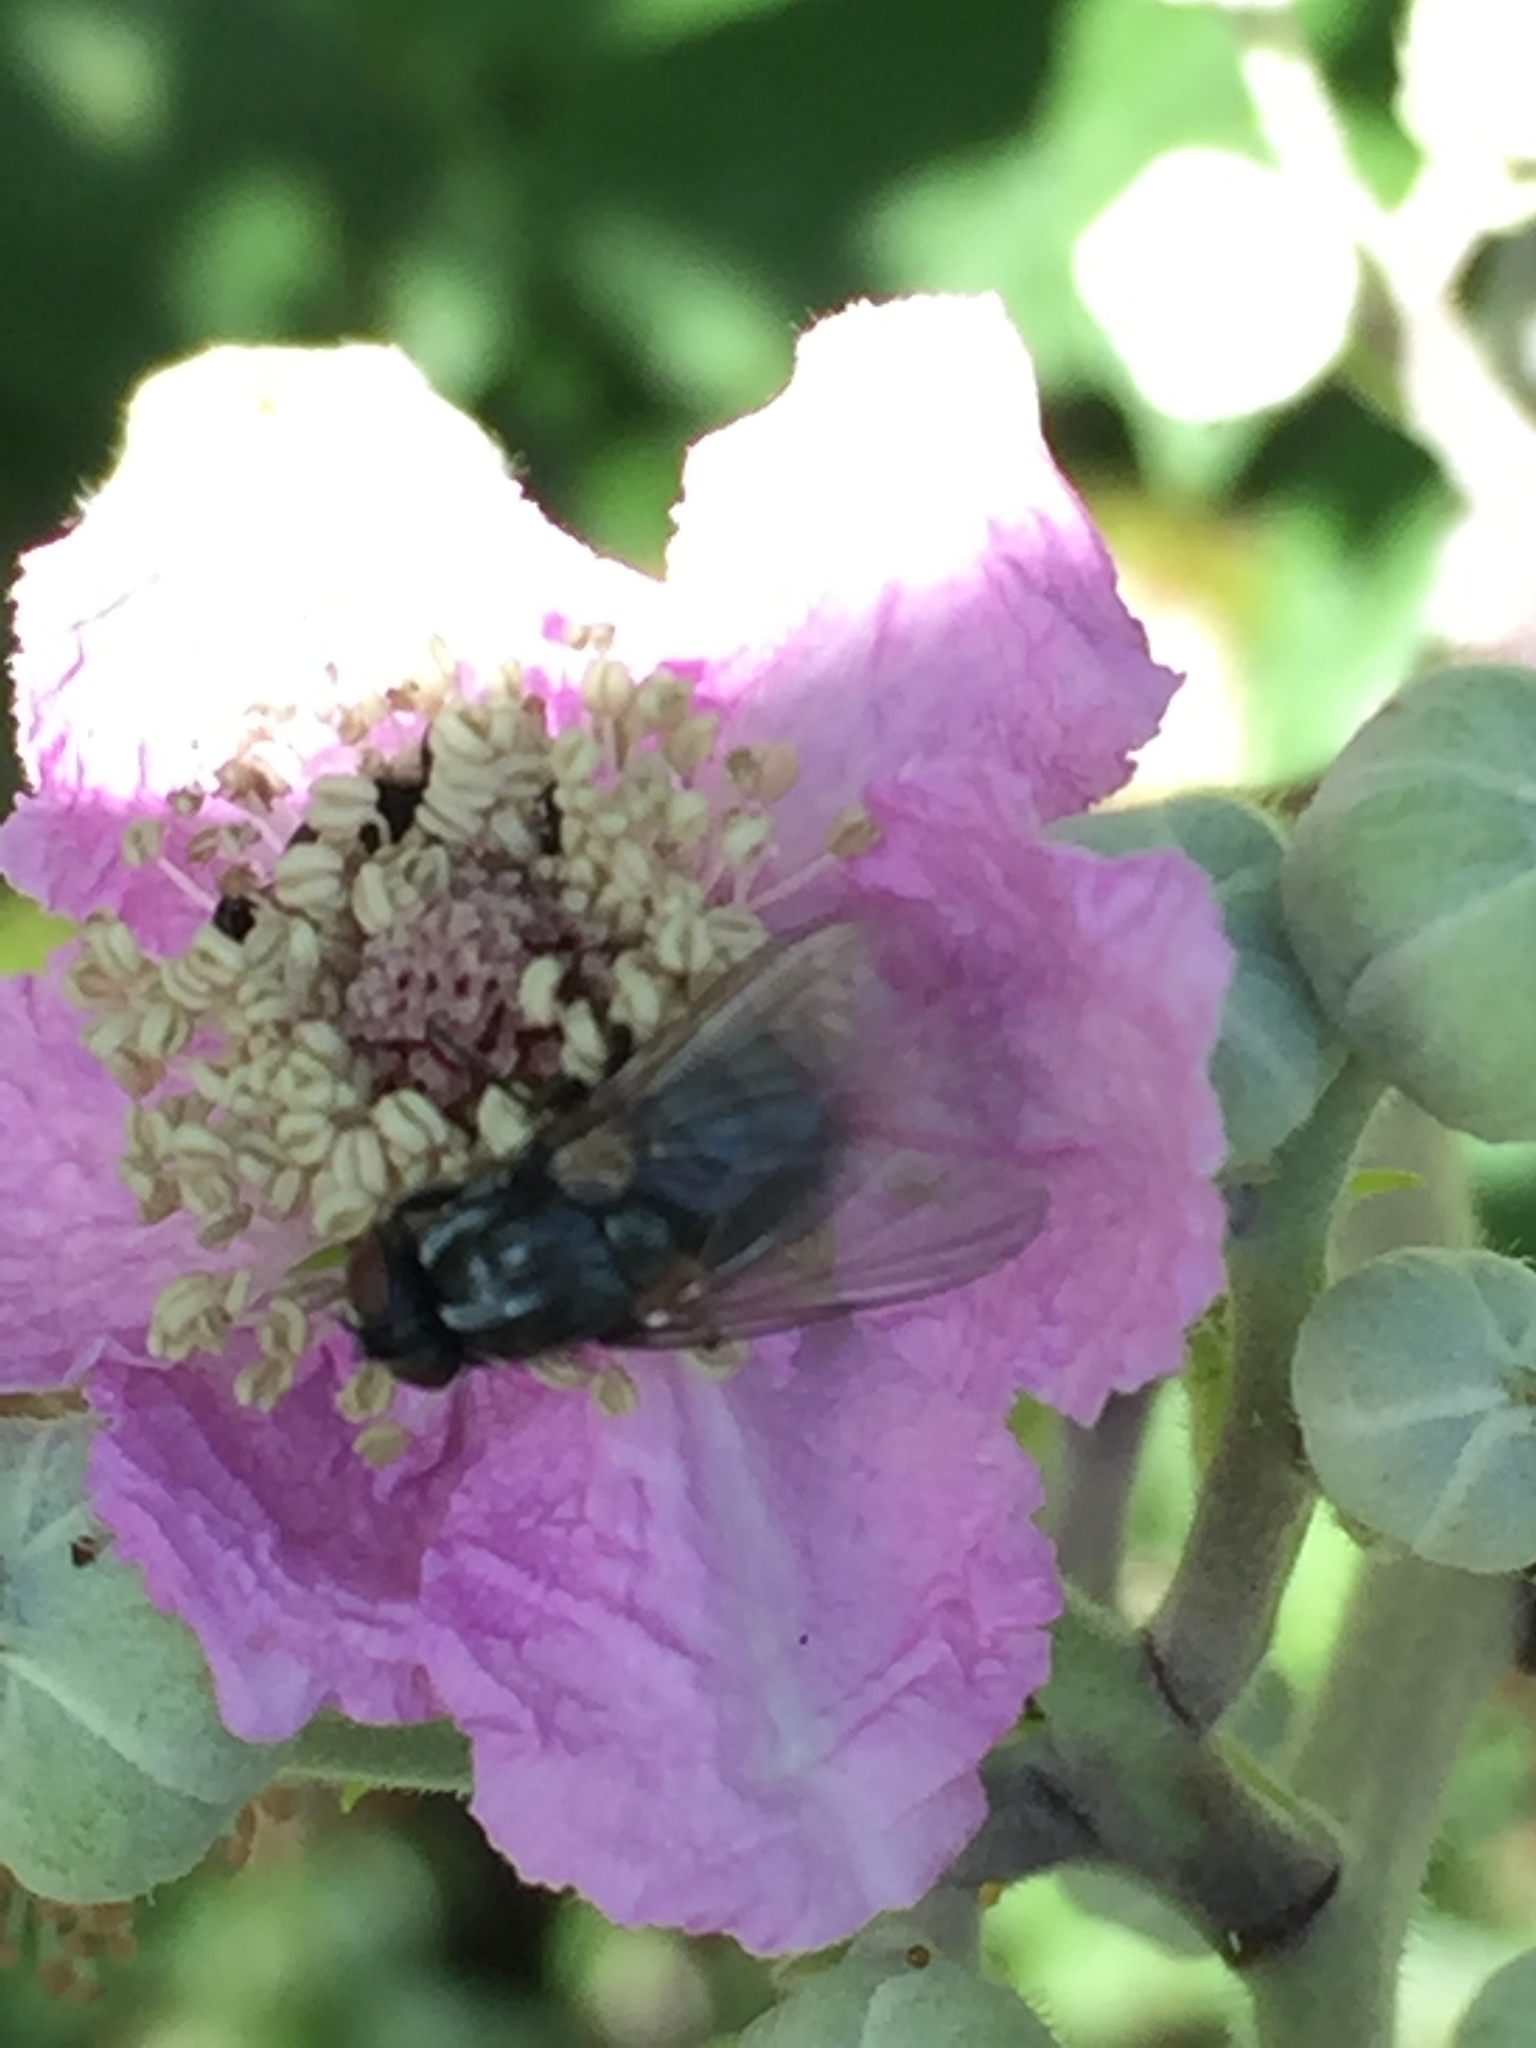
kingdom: Animalia
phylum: Arthropoda
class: Insecta
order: Diptera
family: Muscidae
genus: Morellia
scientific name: Morellia
